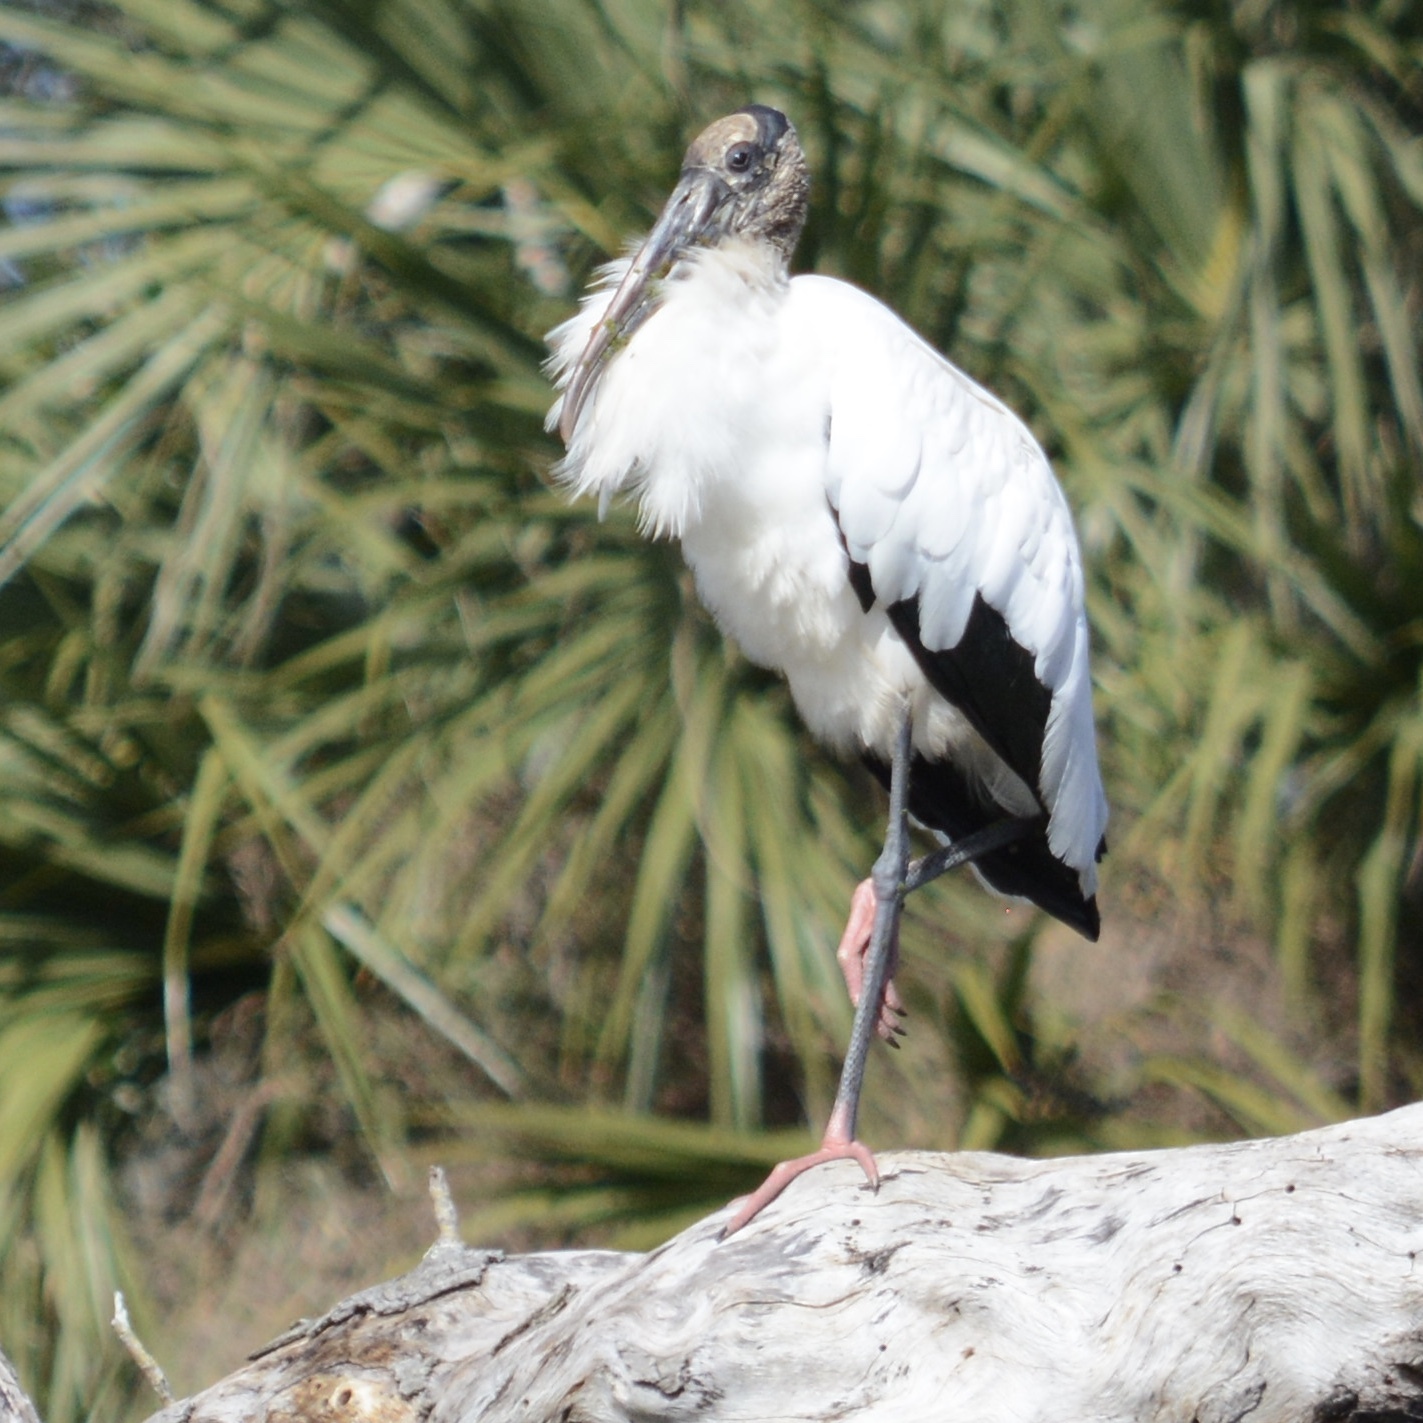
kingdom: Animalia
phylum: Chordata
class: Aves
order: Ciconiiformes
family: Ciconiidae
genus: Mycteria
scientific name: Mycteria americana
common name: Wood stork
